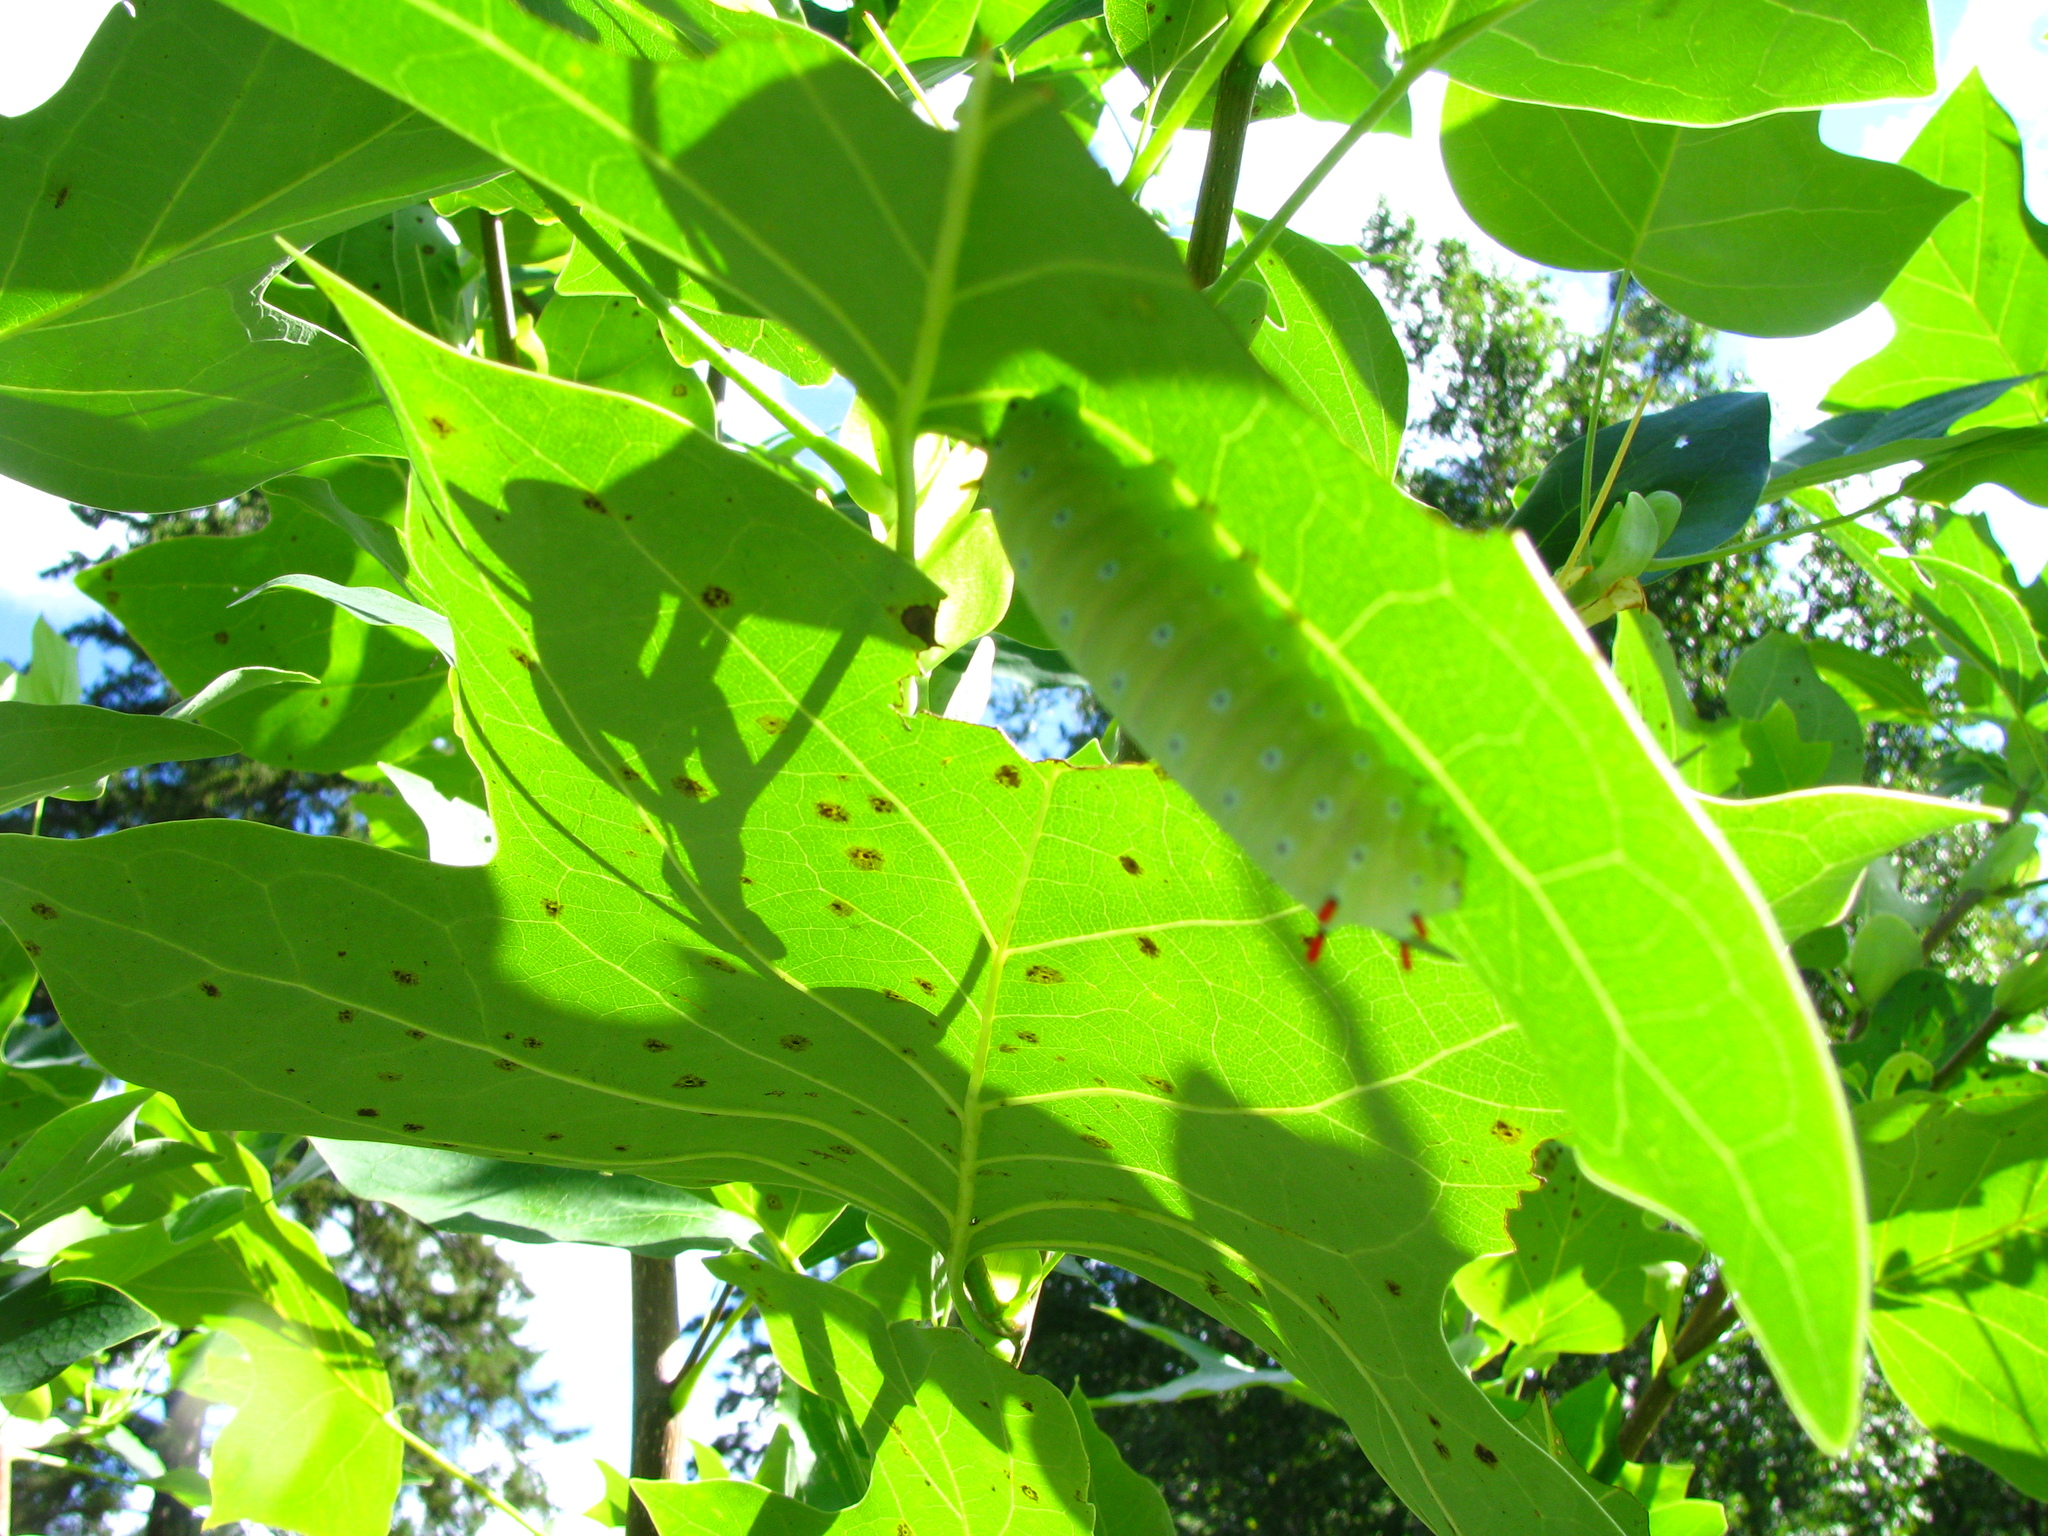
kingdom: Animalia
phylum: Arthropoda
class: Insecta
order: Lepidoptera
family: Saturniidae
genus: Callosamia
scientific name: Callosamia promethea
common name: Promethea silkmoth
